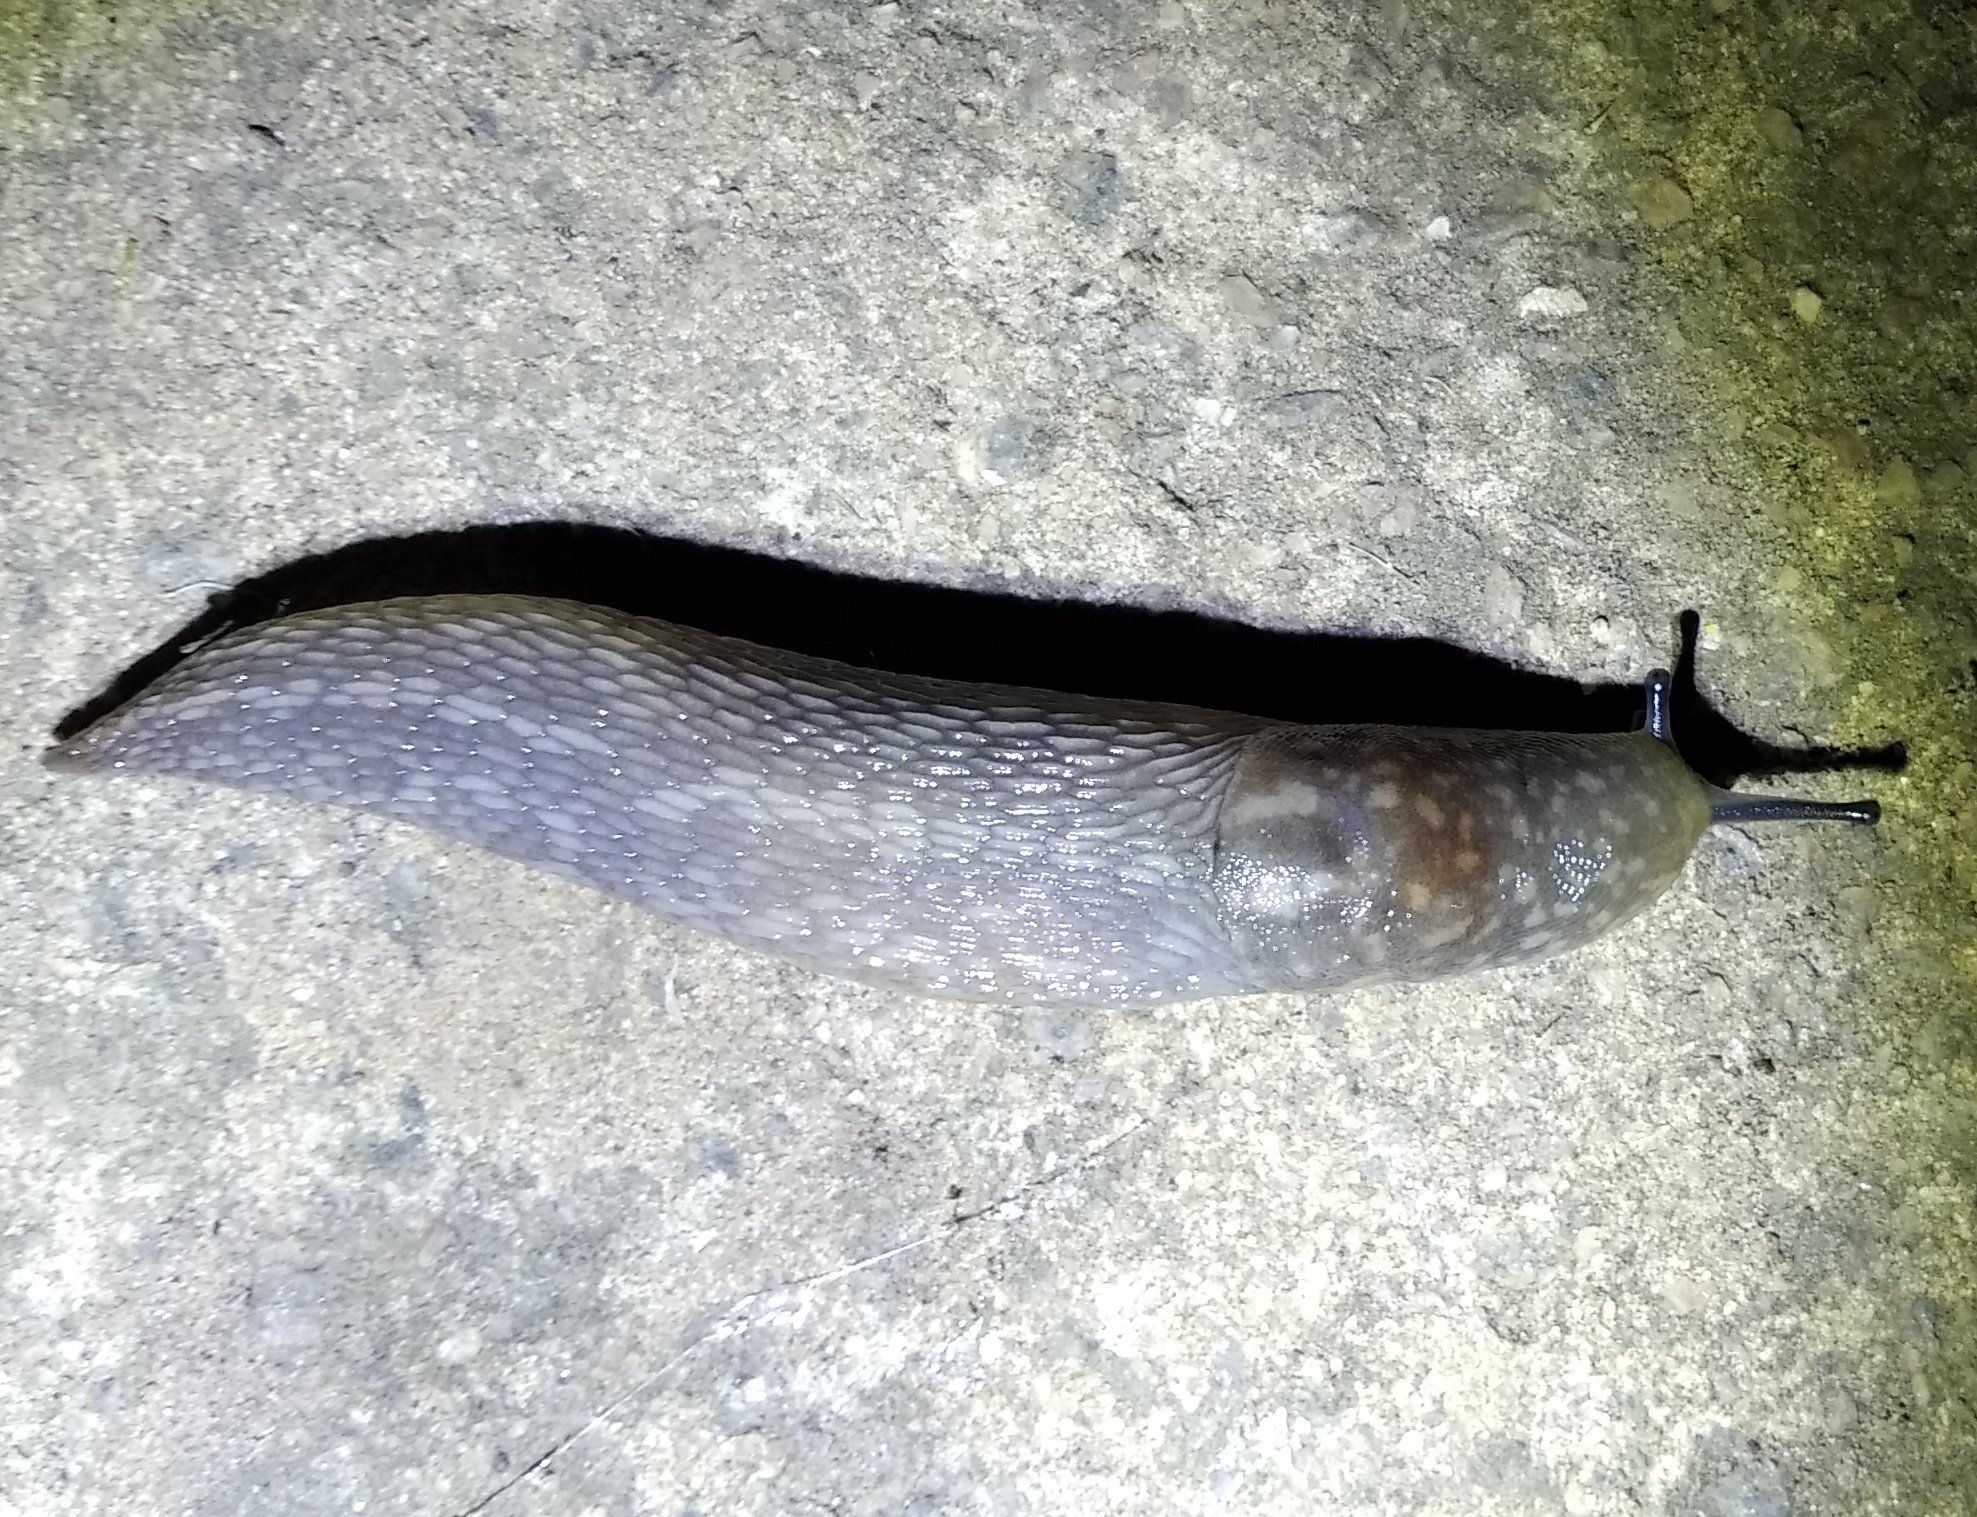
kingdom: Animalia
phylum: Mollusca
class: Gastropoda
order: Stylommatophora
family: Limacidae
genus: Limacus
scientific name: Limacus
